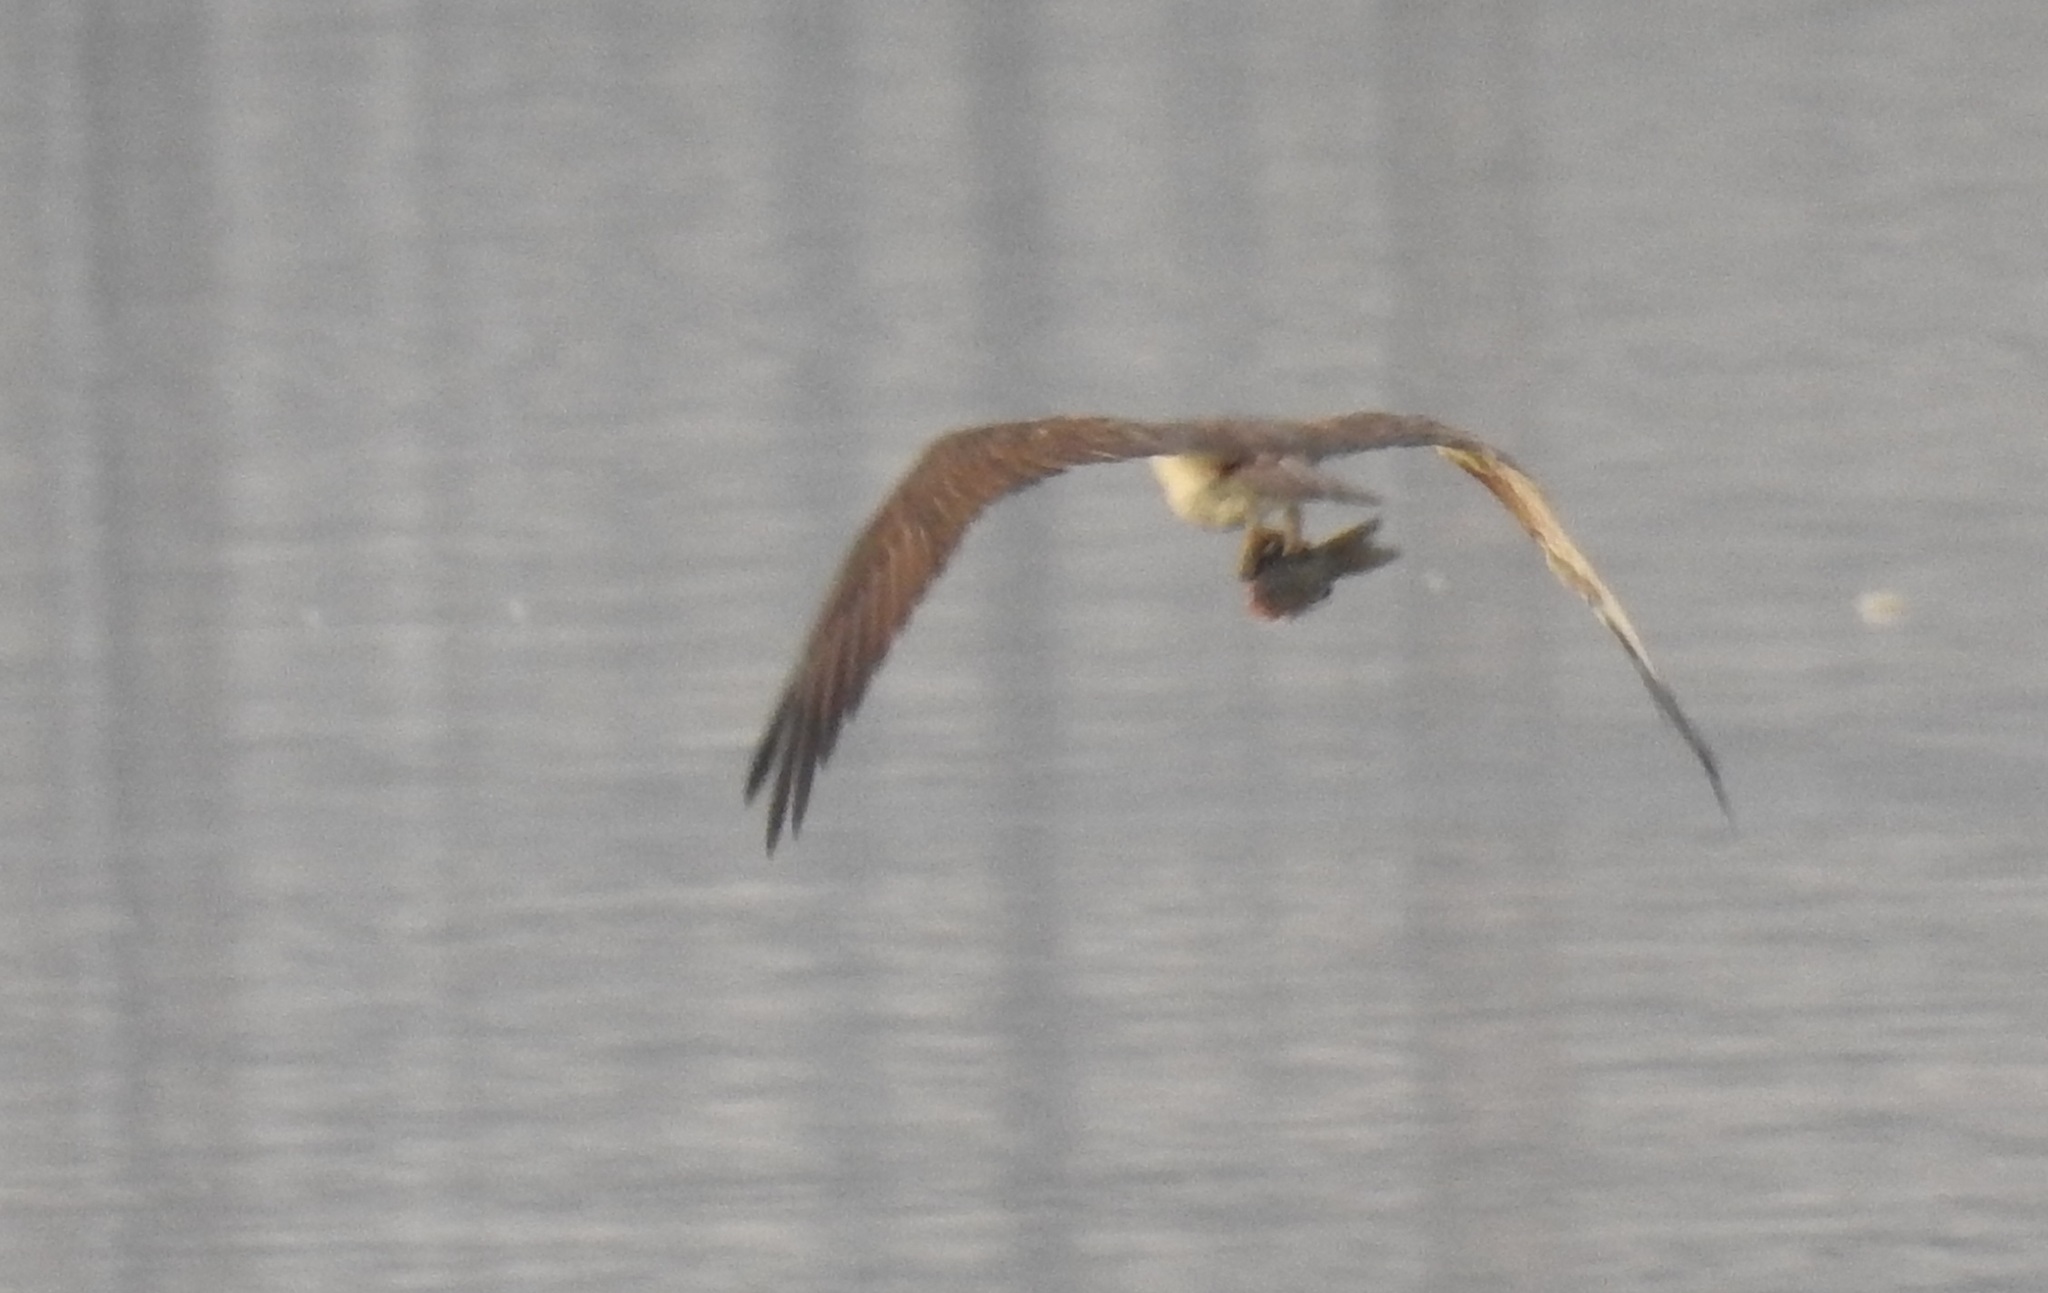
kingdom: Animalia
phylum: Chordata
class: Aves
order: Accipitriformes
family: Pandionidae
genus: Pandion
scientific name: Pandion haliaetus
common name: Osprey
